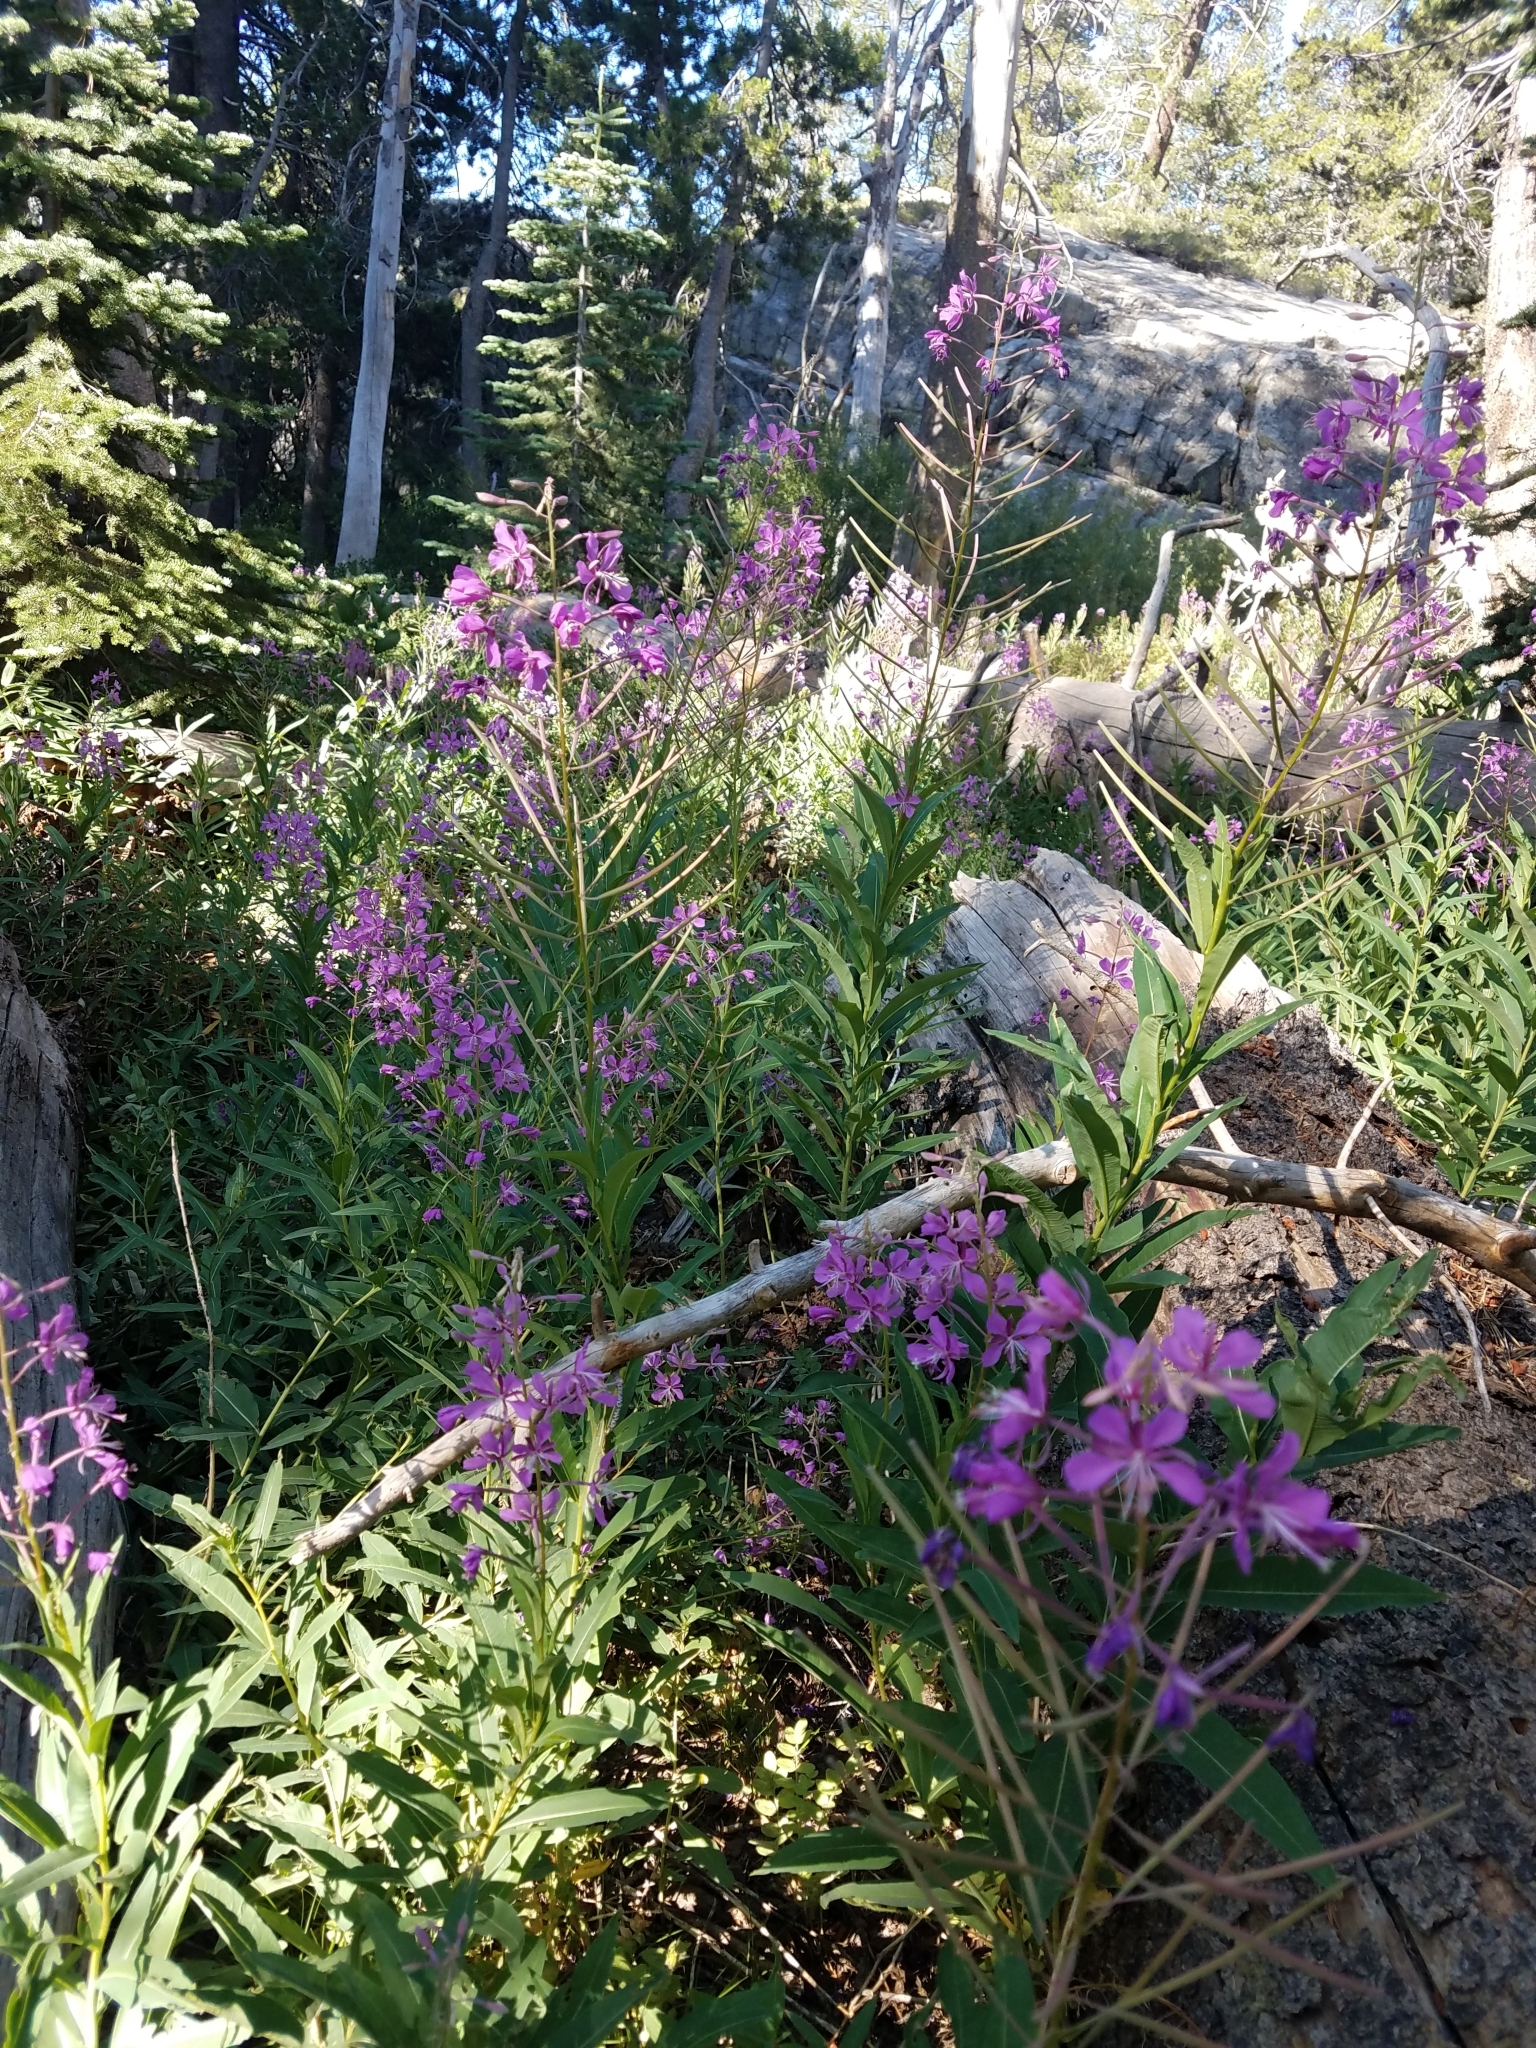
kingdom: Plantae
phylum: Tracheophyta
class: Magnoliopsida
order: Myrtales
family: Onagraceae
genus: Chamaenerion
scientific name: Chamaenerion angustifolium
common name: Fireweed
